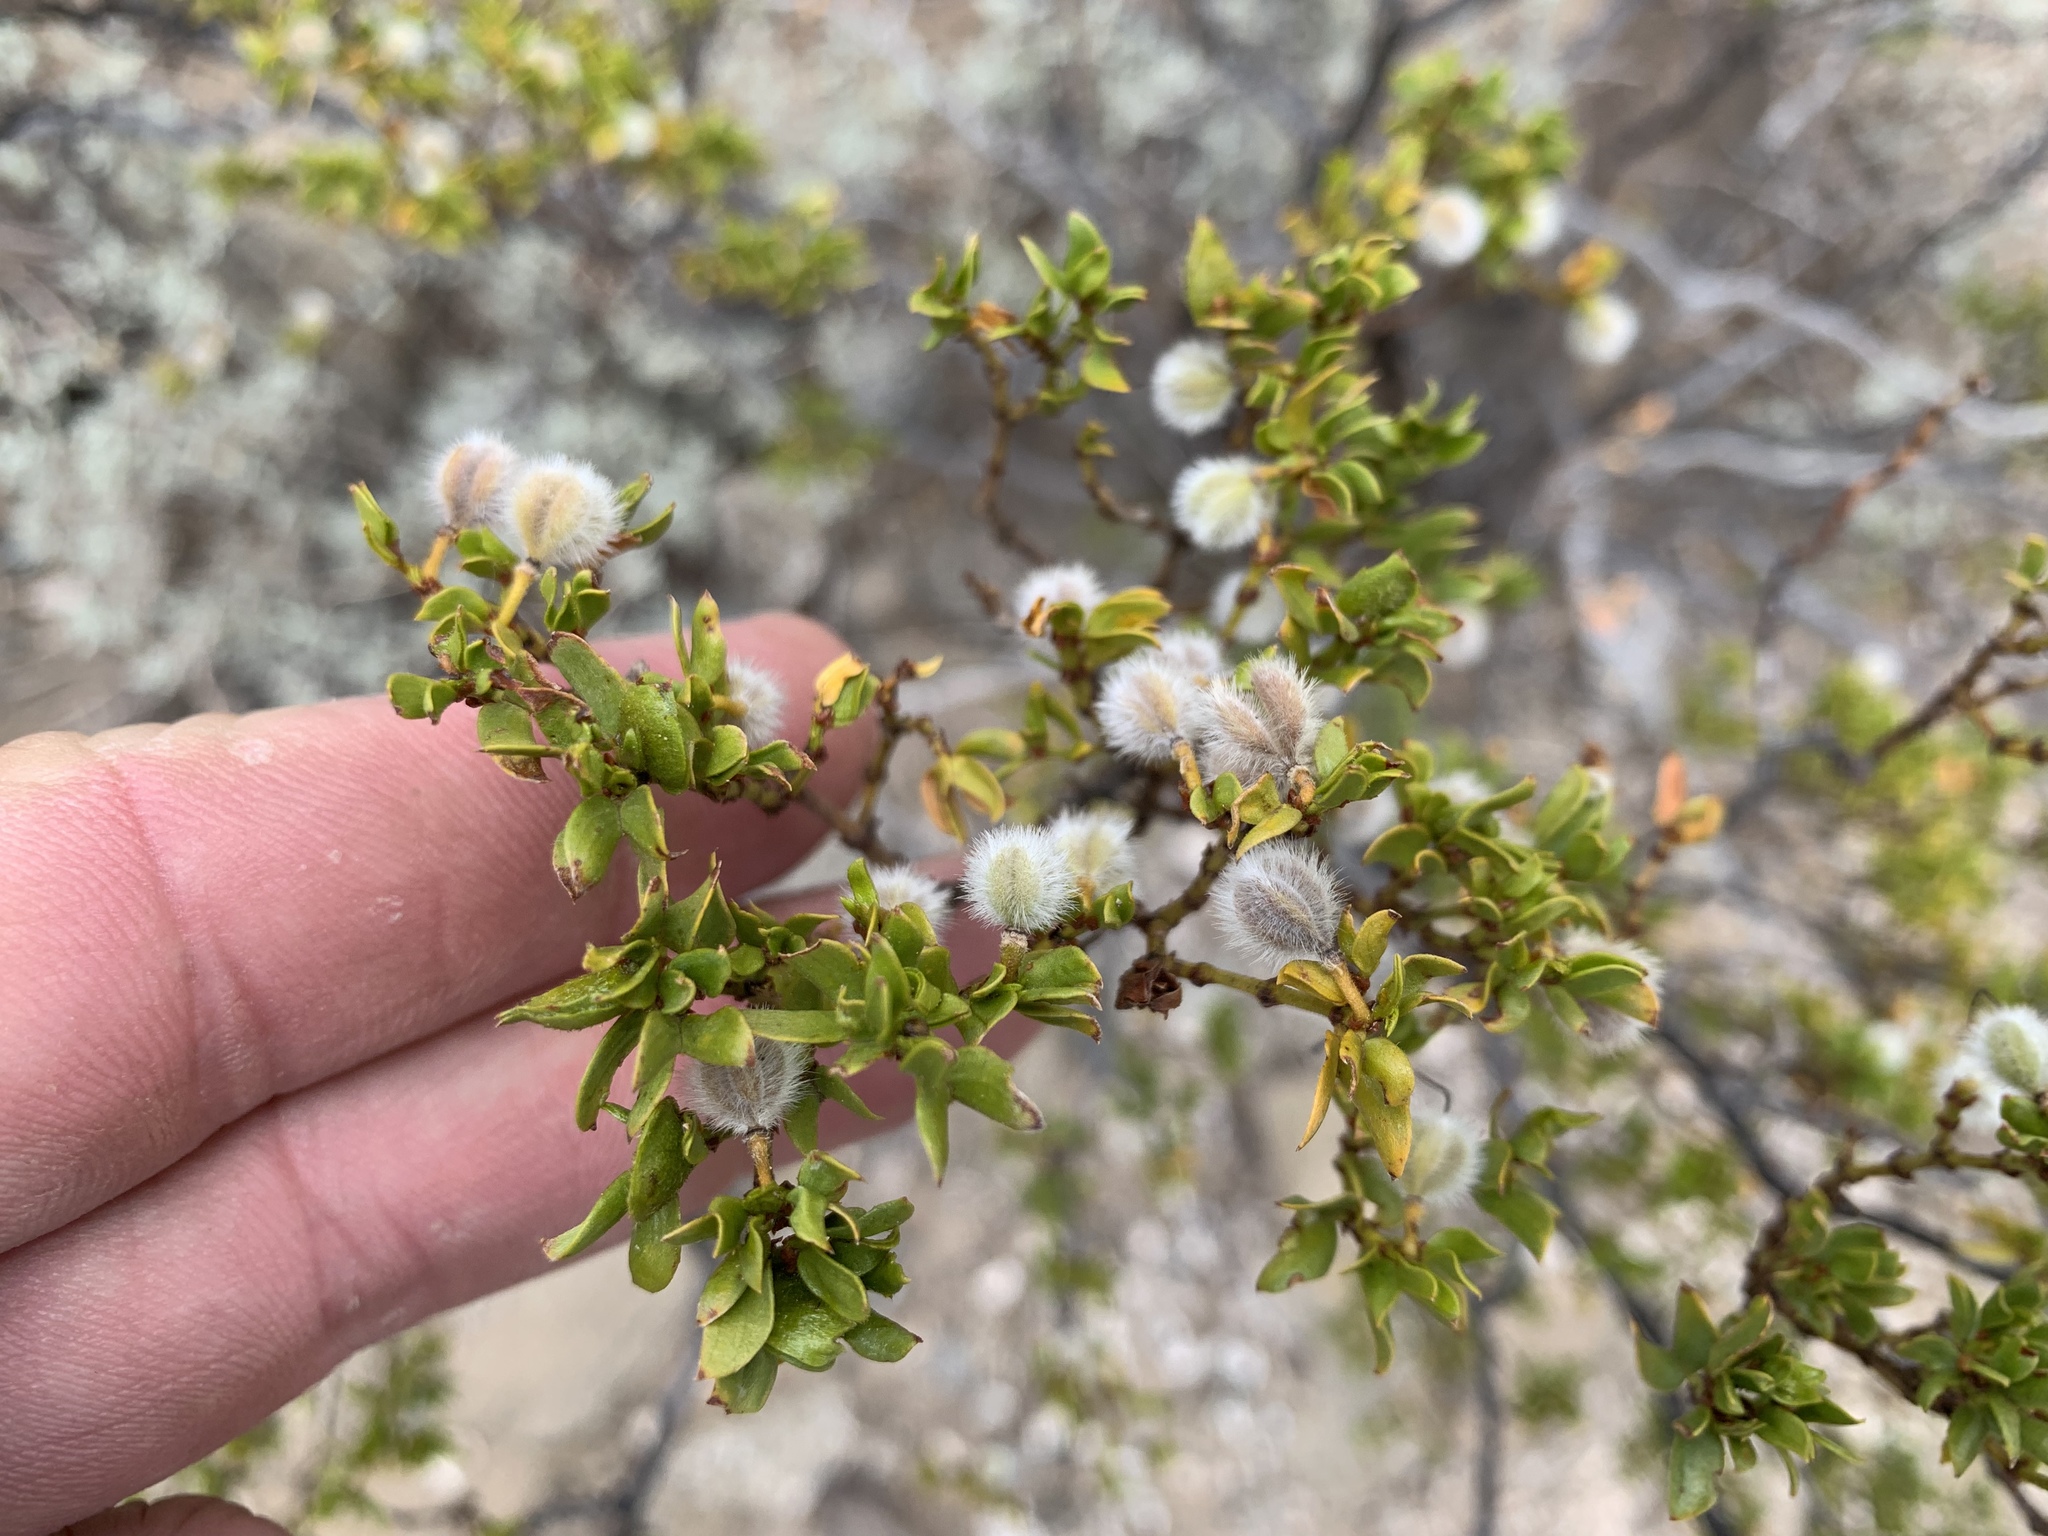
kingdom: Plantae
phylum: Tracheophyta
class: Magnoliopsida
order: Zygophyllales
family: Zygophyllaceae
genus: Larrea
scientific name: Larrea tridentata
